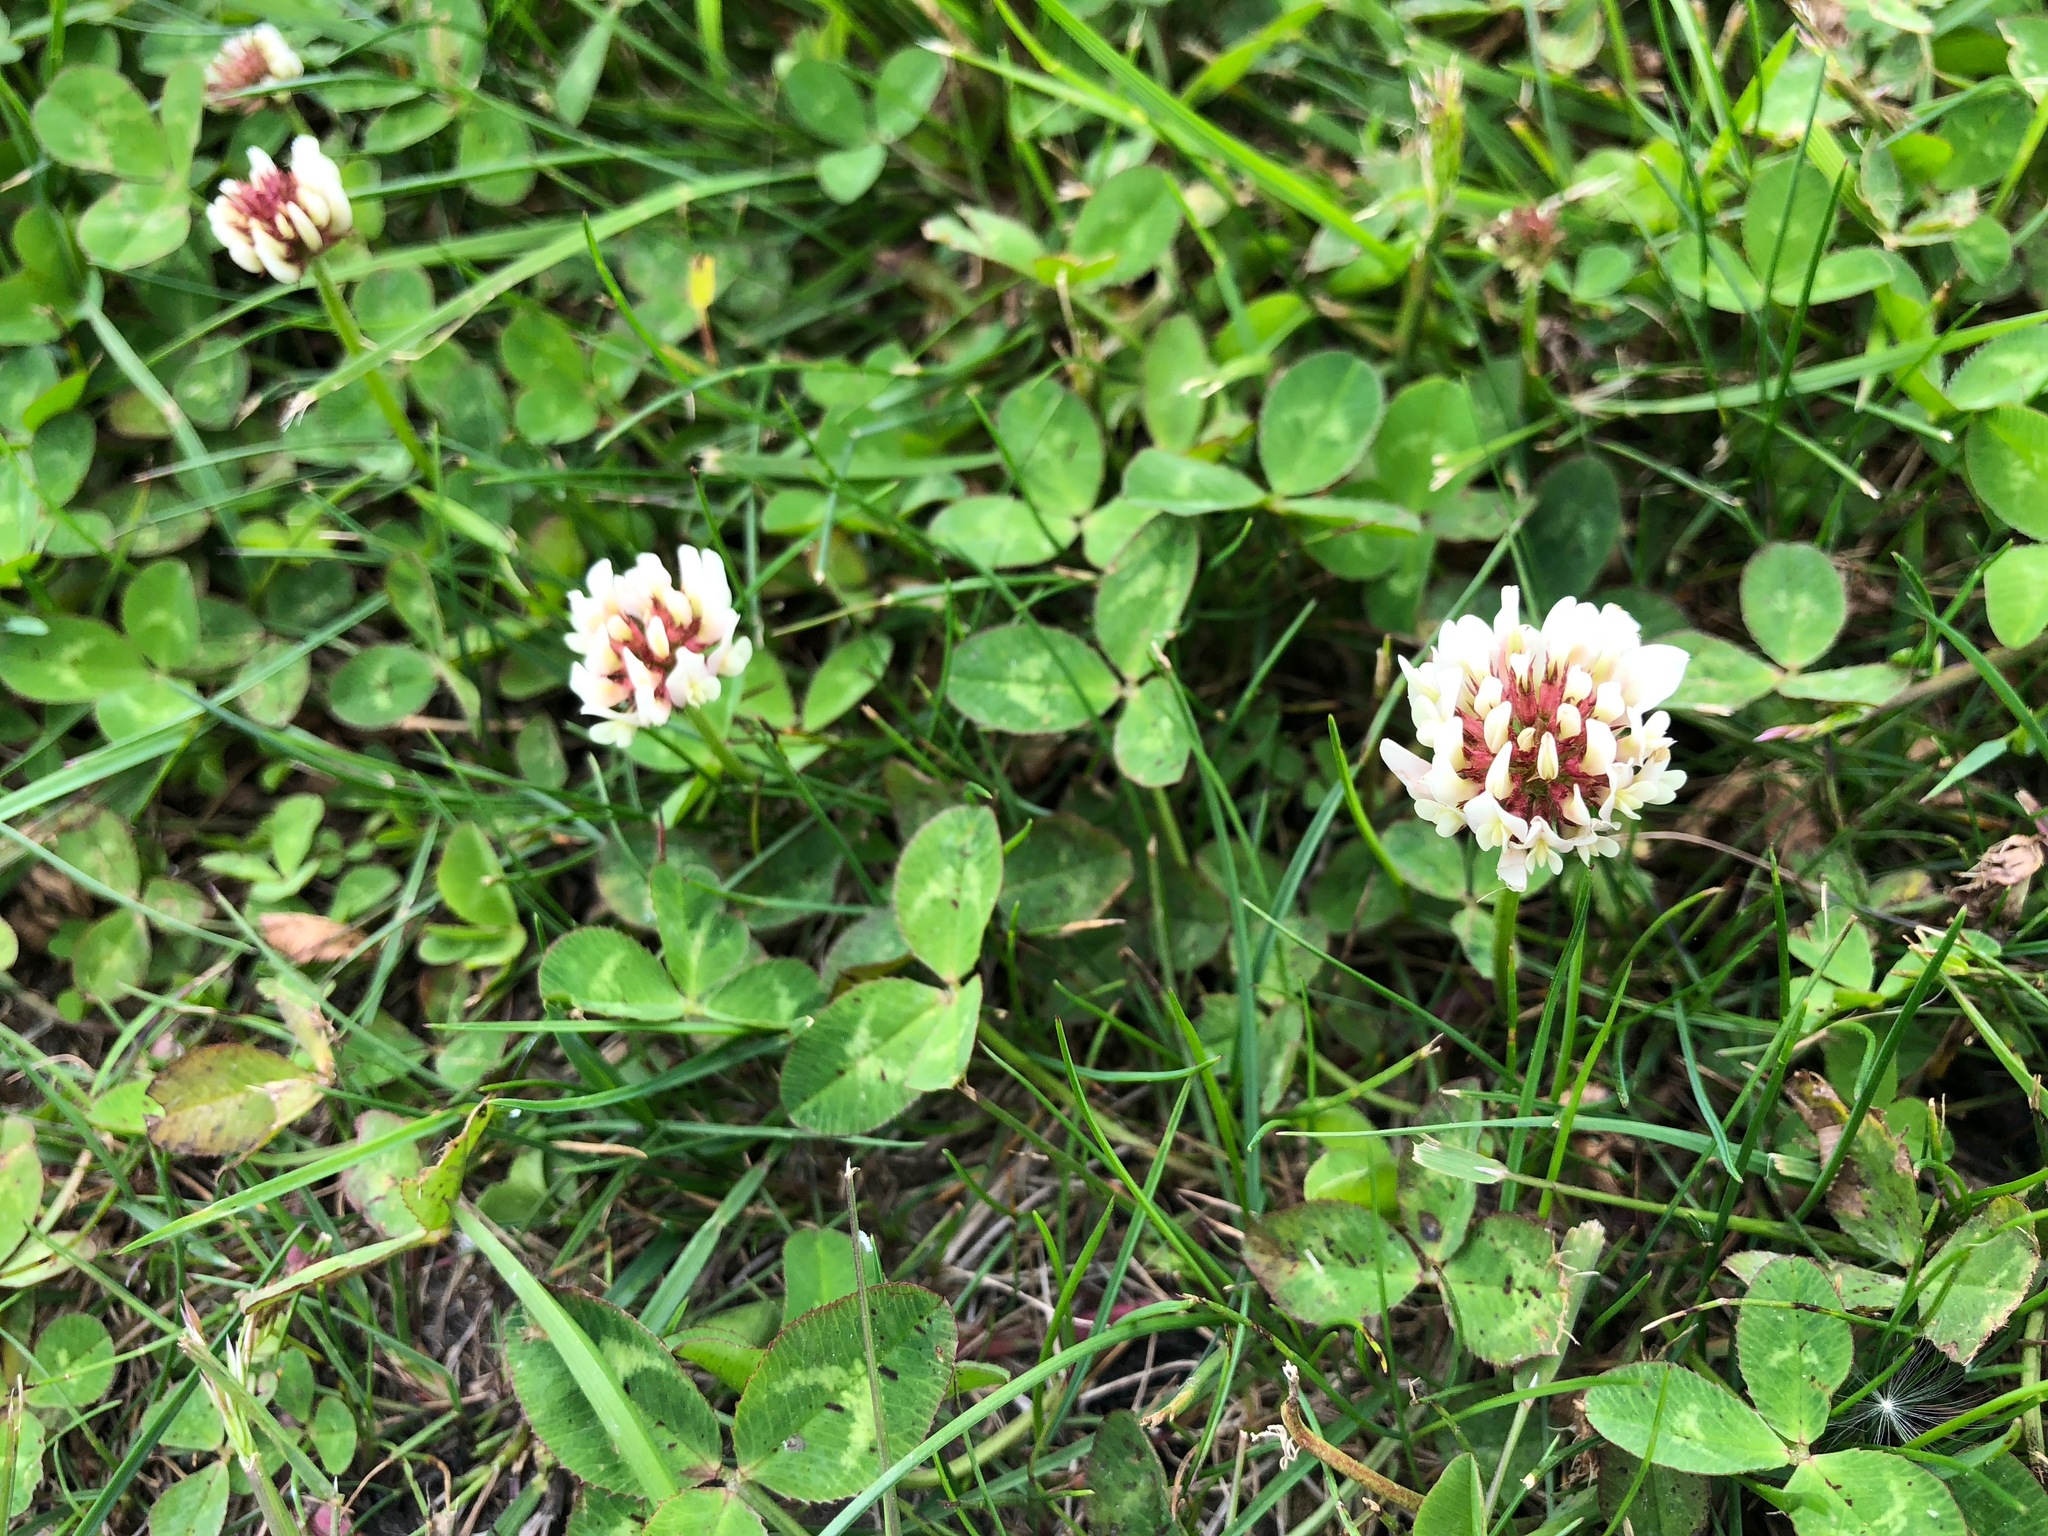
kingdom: Plantae
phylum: Tracheophyta
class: Magnoliopsida
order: Fabales
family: Fabaceae
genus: Trifolium
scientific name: Trifolium repens
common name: White clover
